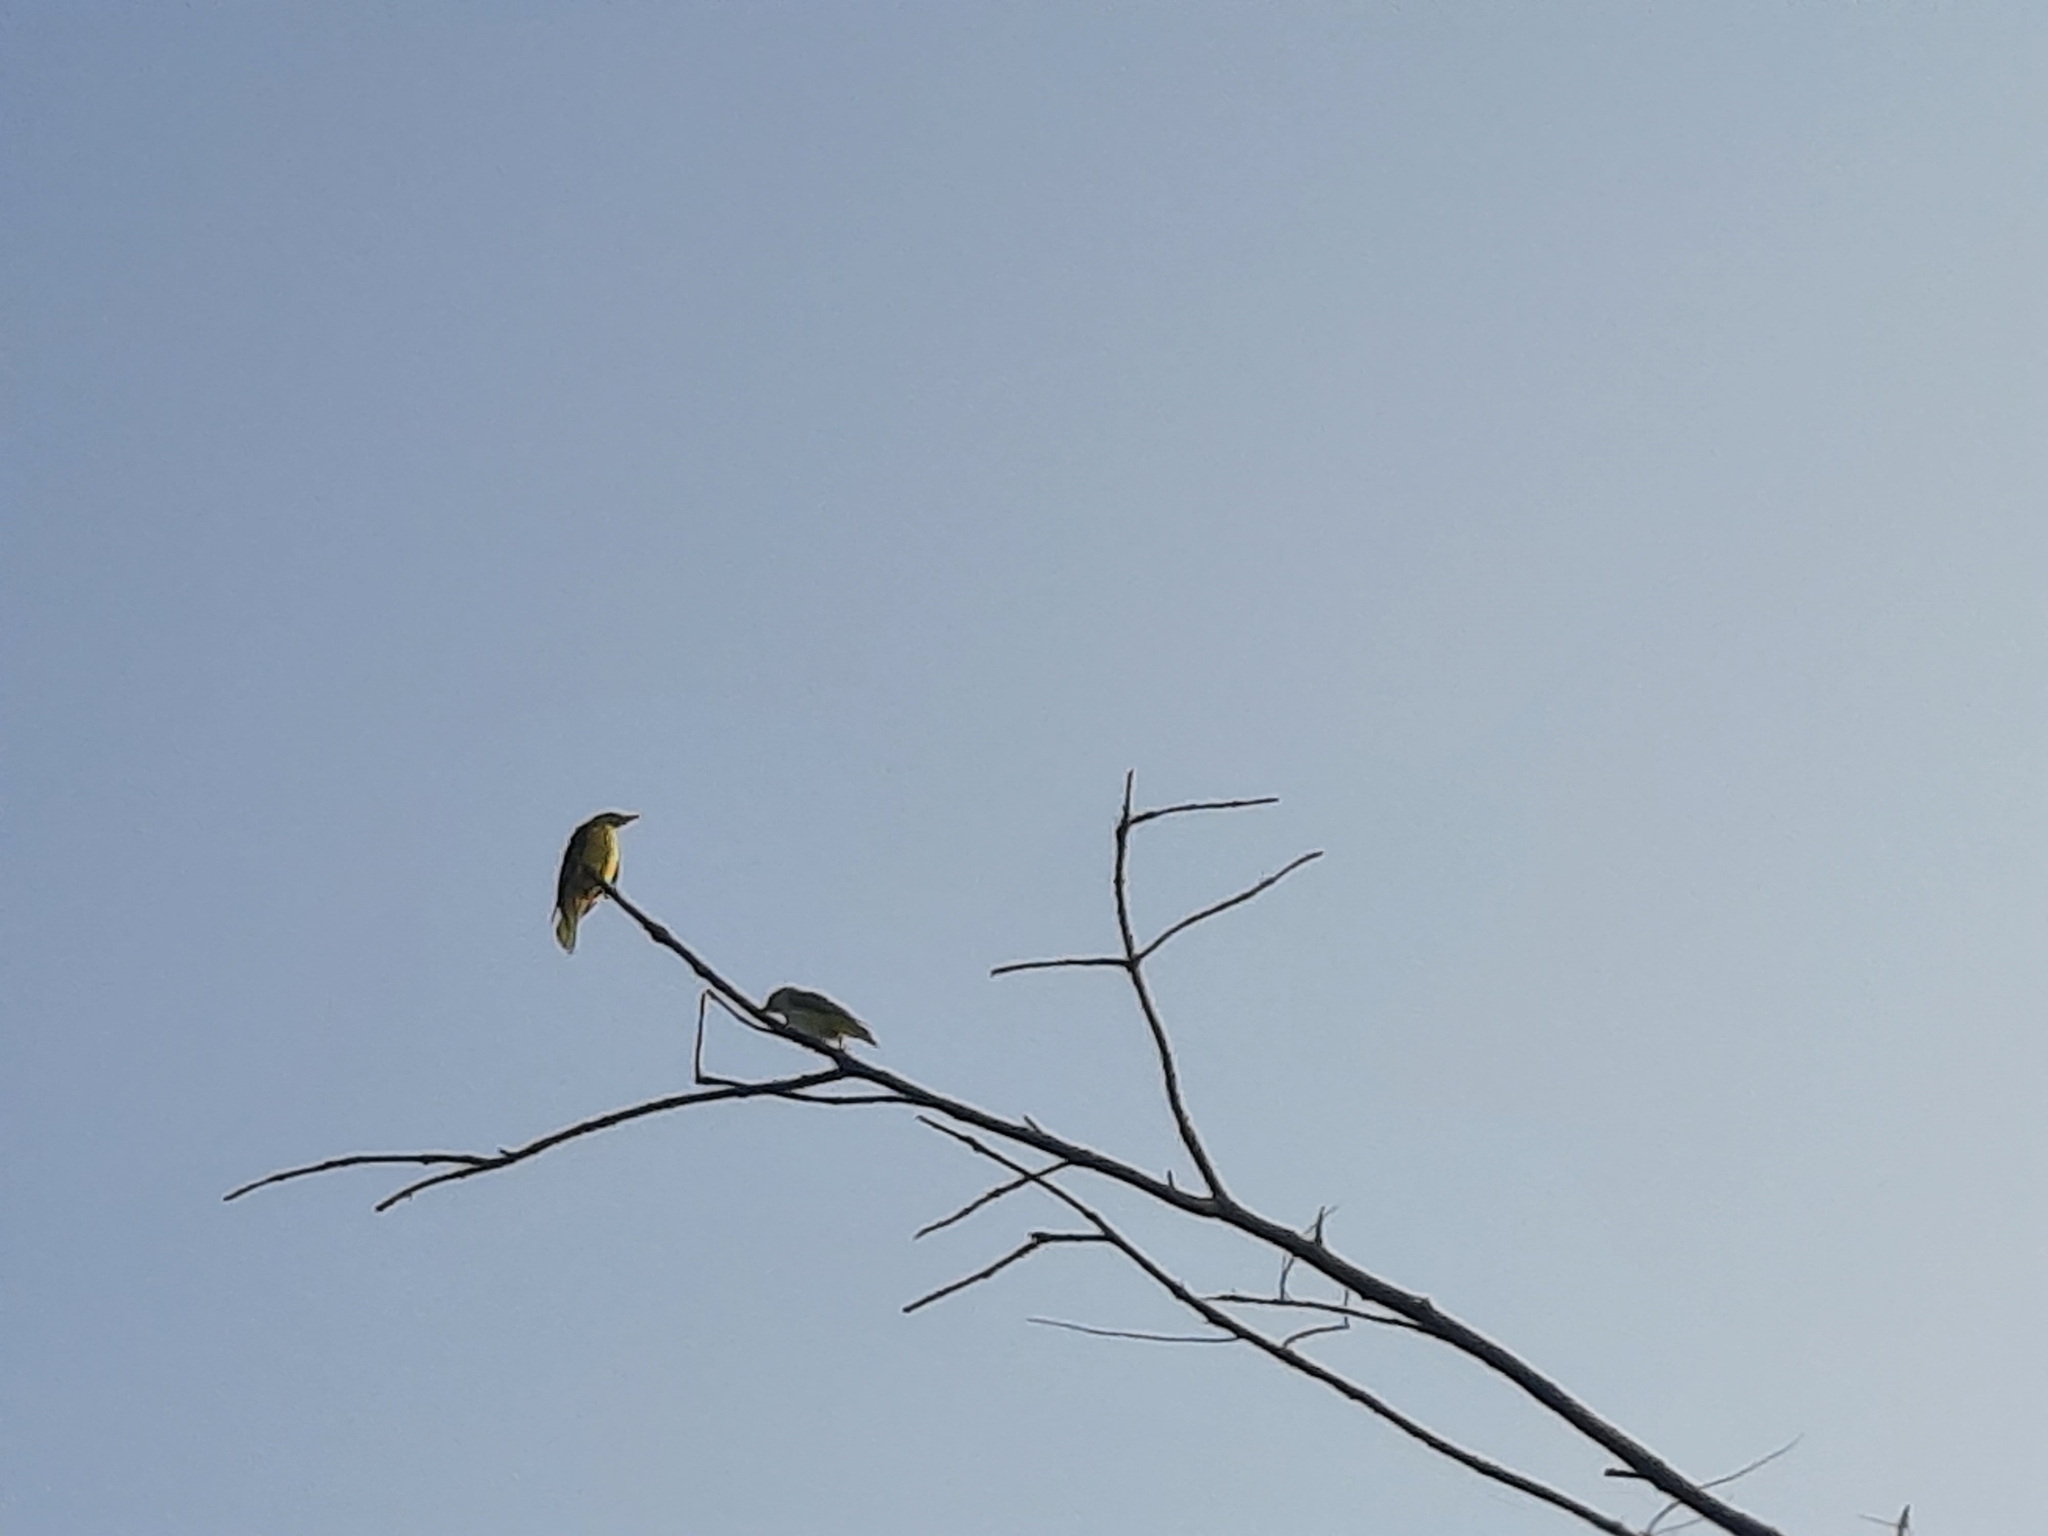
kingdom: Animalia
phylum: Chordata
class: Aves
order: Passeriformes
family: Oriolidae
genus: Oriolus
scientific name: Oriolus kundoo
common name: Indian golden oriole
